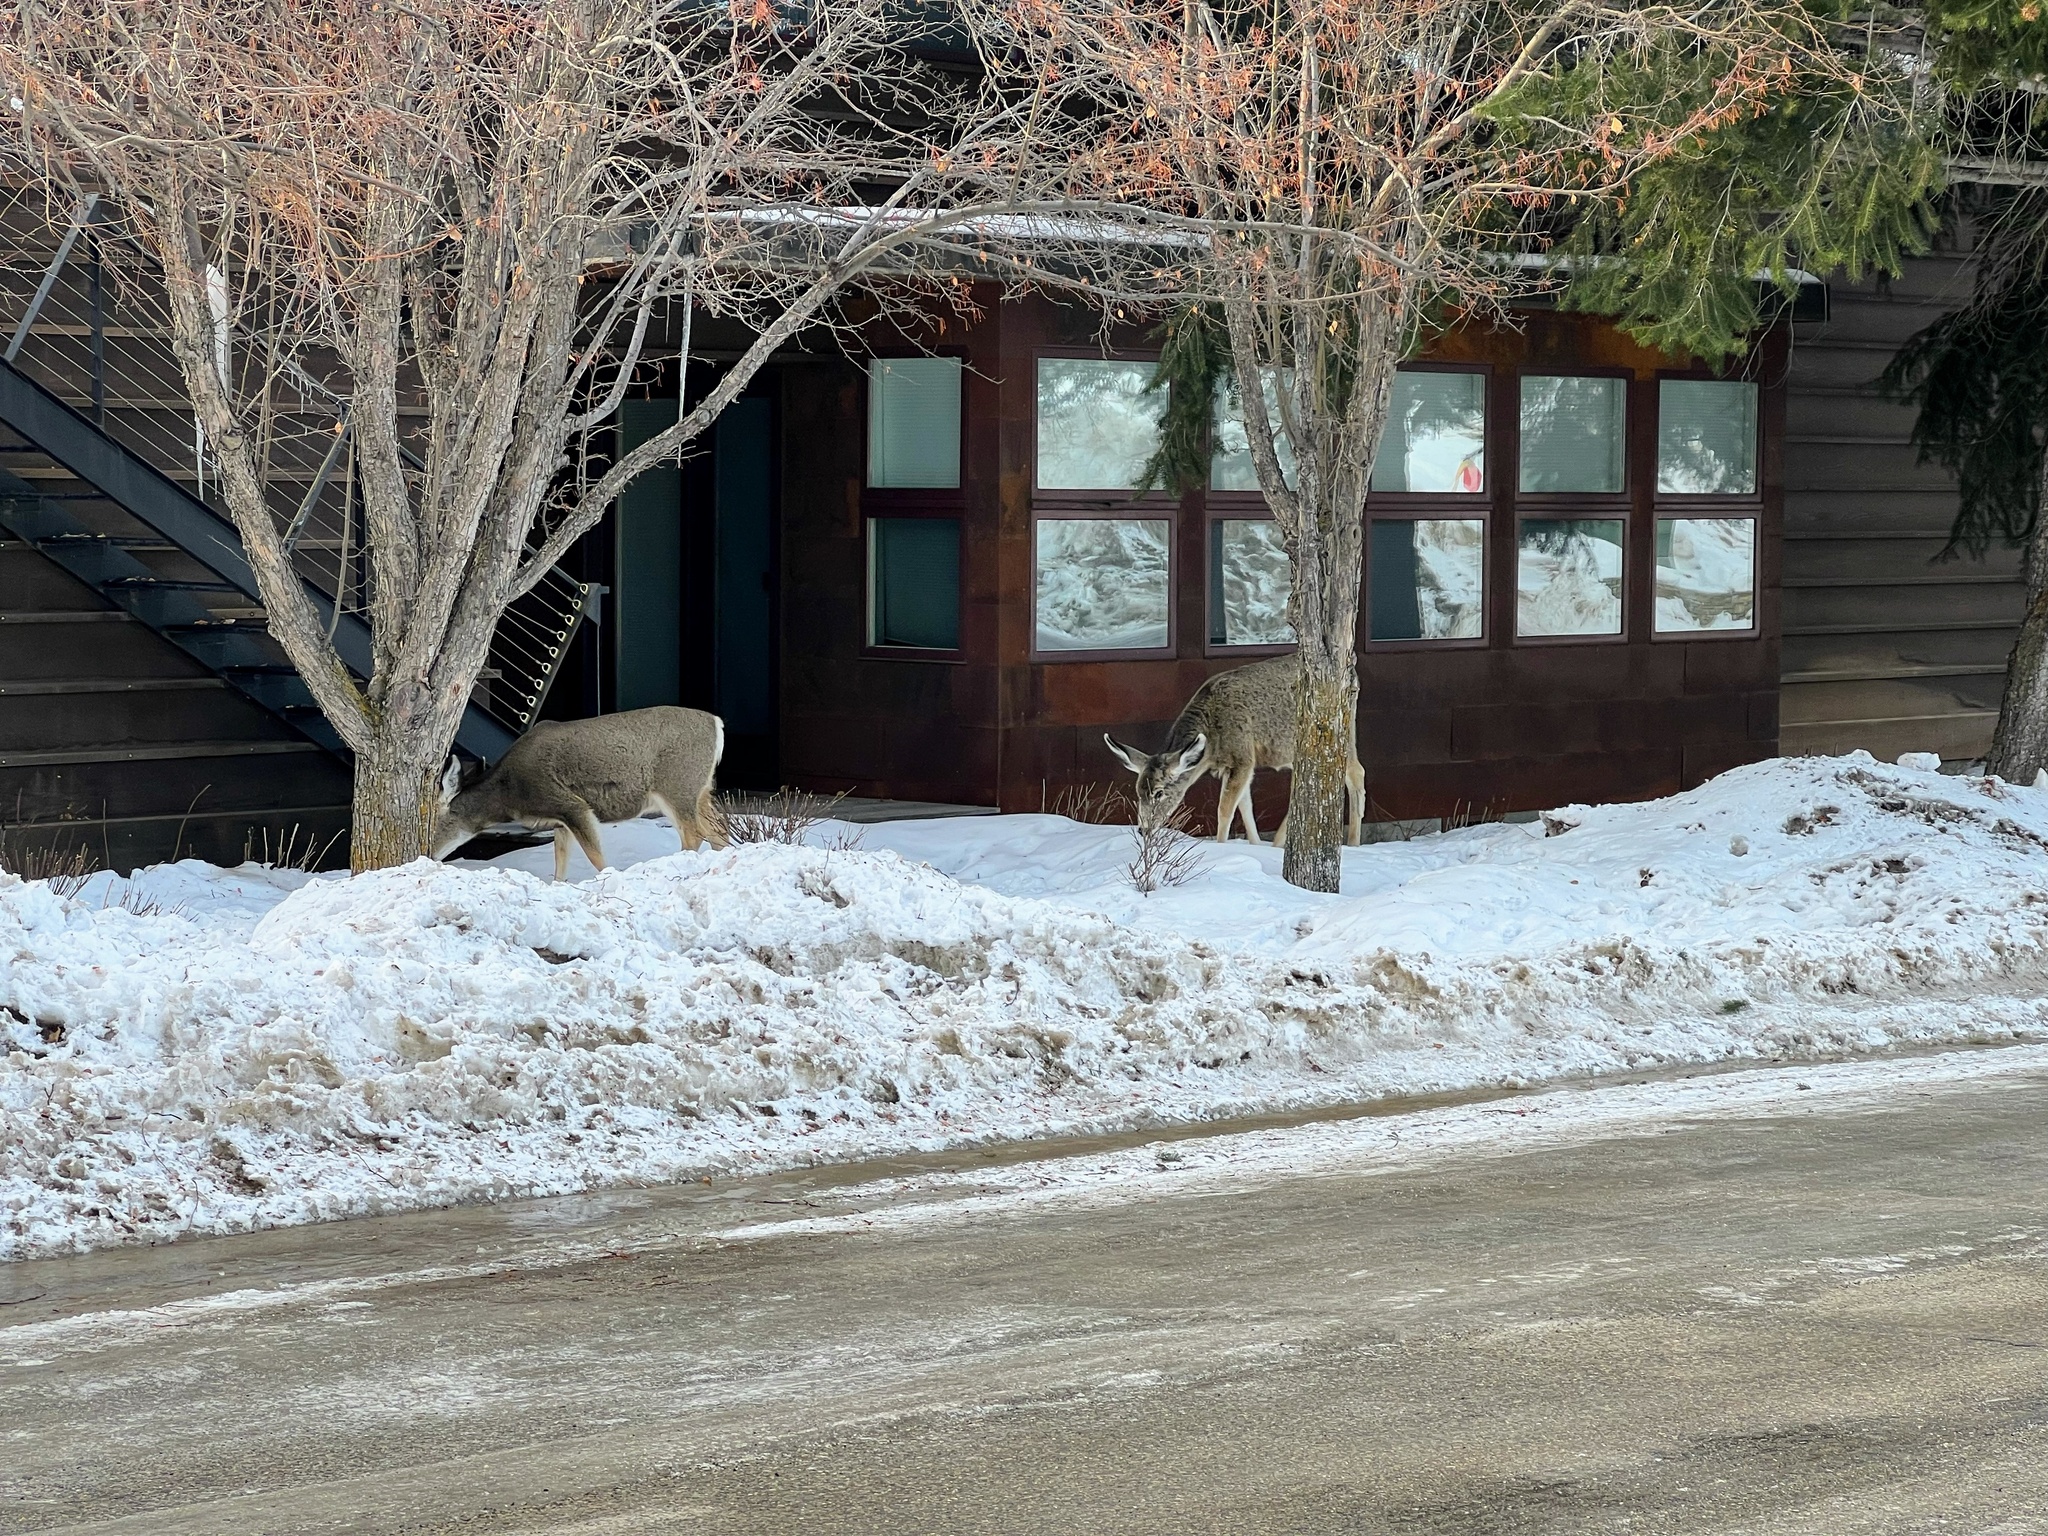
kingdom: Animalia
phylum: Chordata
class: Mammalia
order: Artiodactyla
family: Cervidae
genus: Odocoileus
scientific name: Odocoileus hemionus
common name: Mule deer
